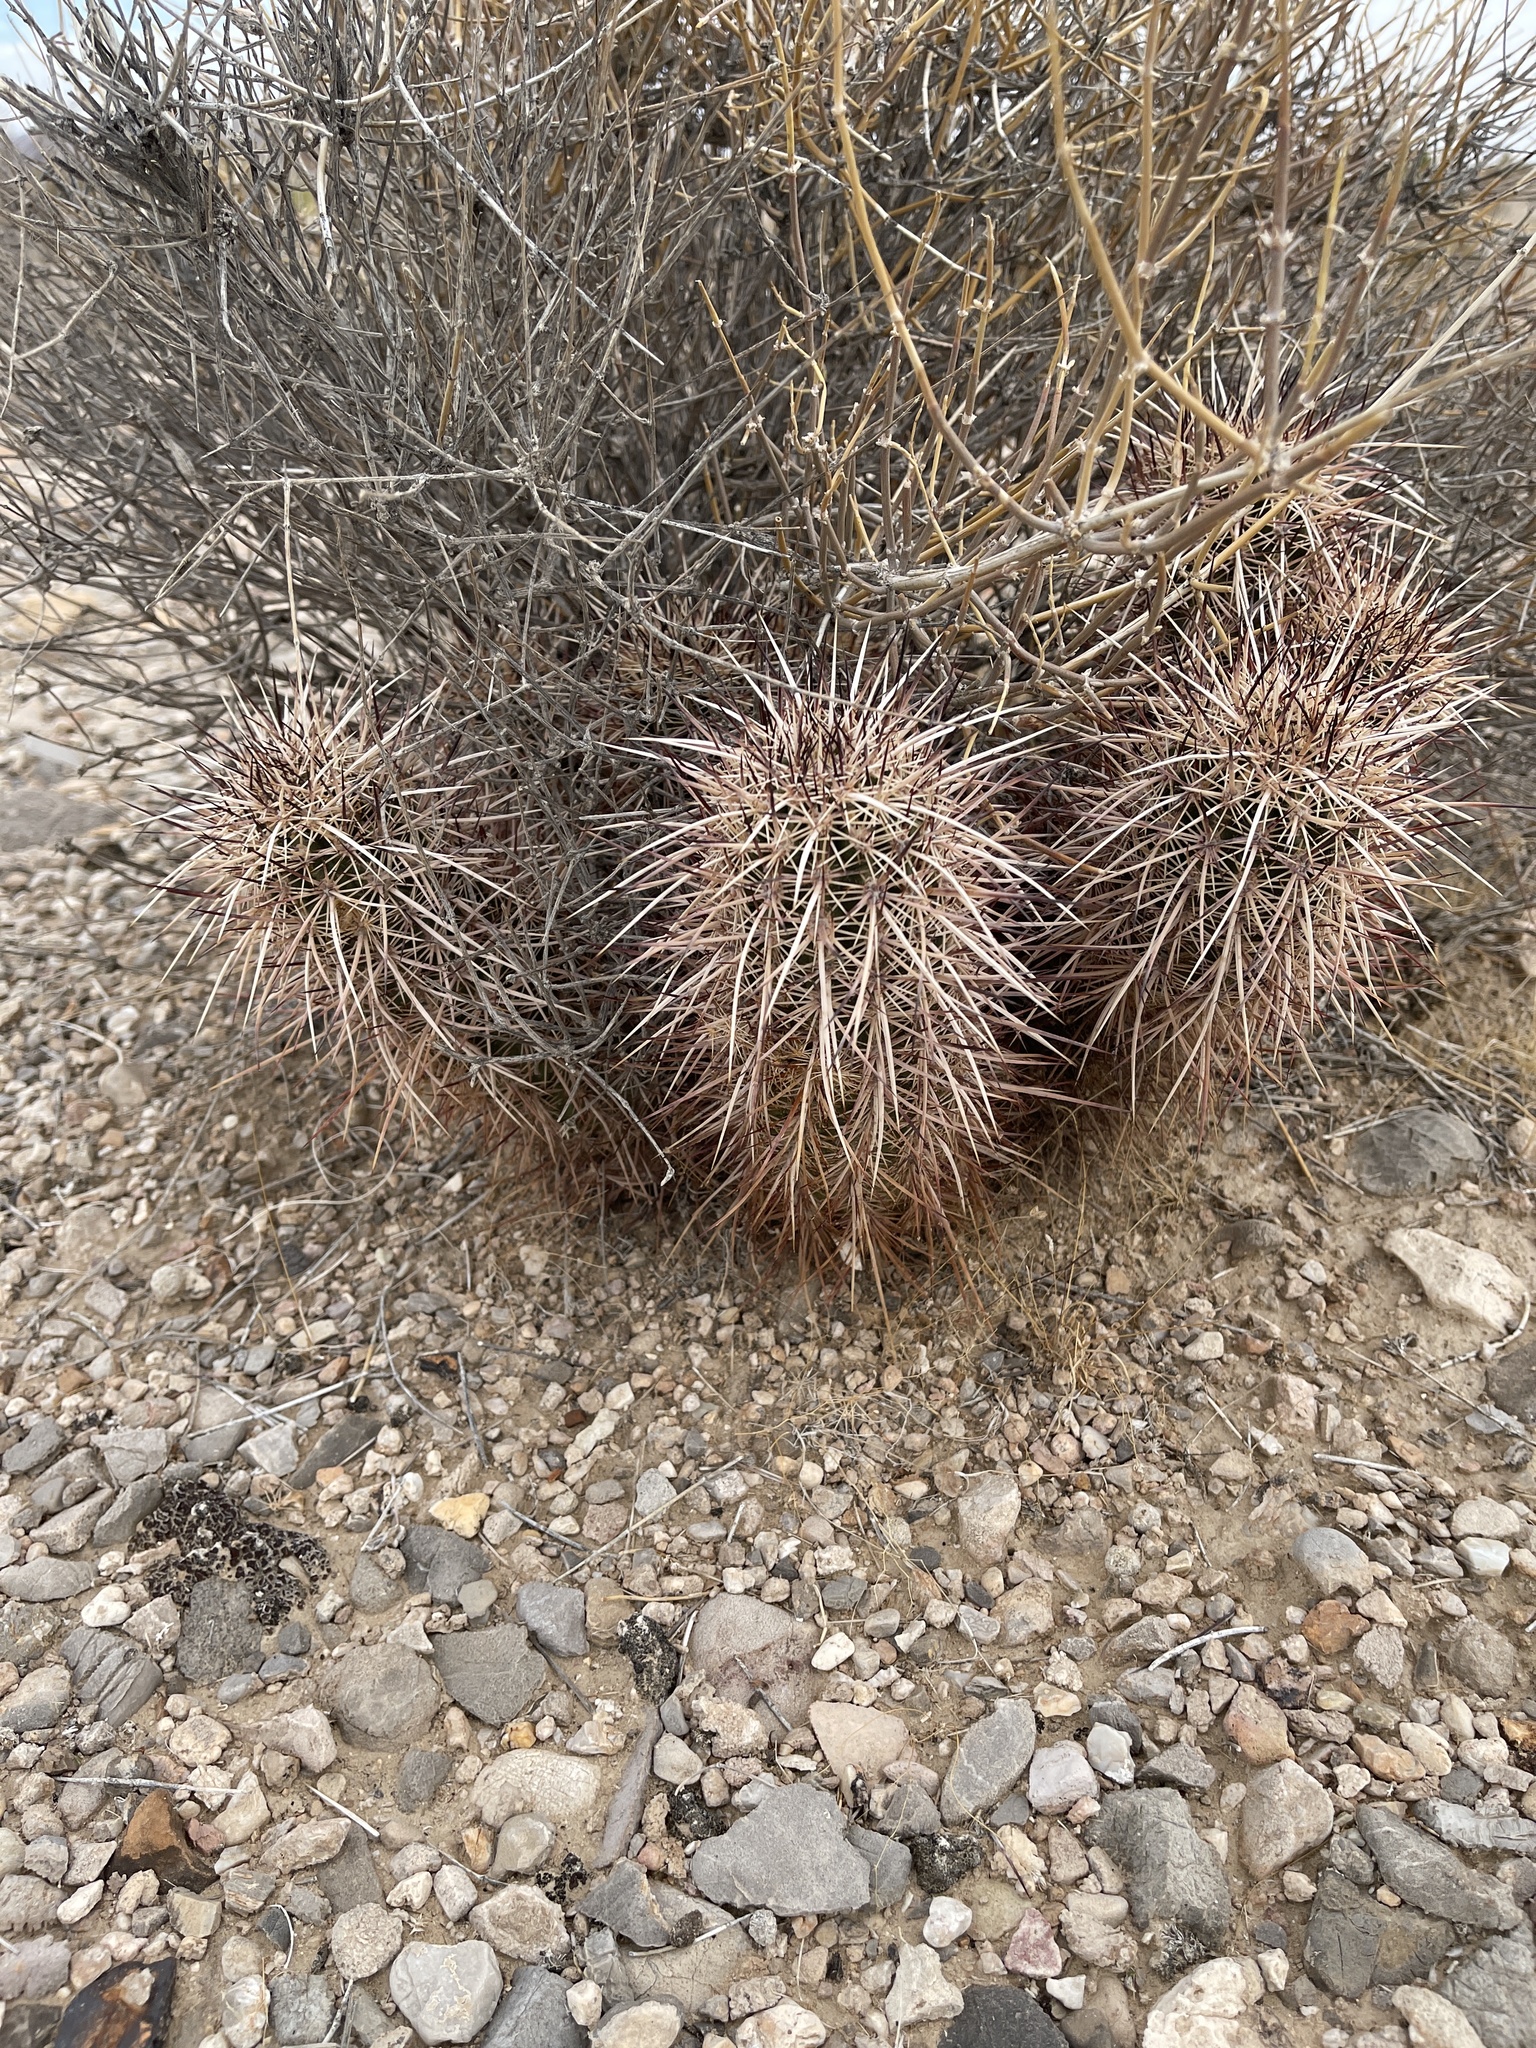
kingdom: Plantae
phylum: Tracheophyta
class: Magnoliopsida
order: Caryophyllales
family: Cactaceae
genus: Echinocereus
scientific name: Echinocereus engelmannii
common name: Engelmann's hedgehog cactus
